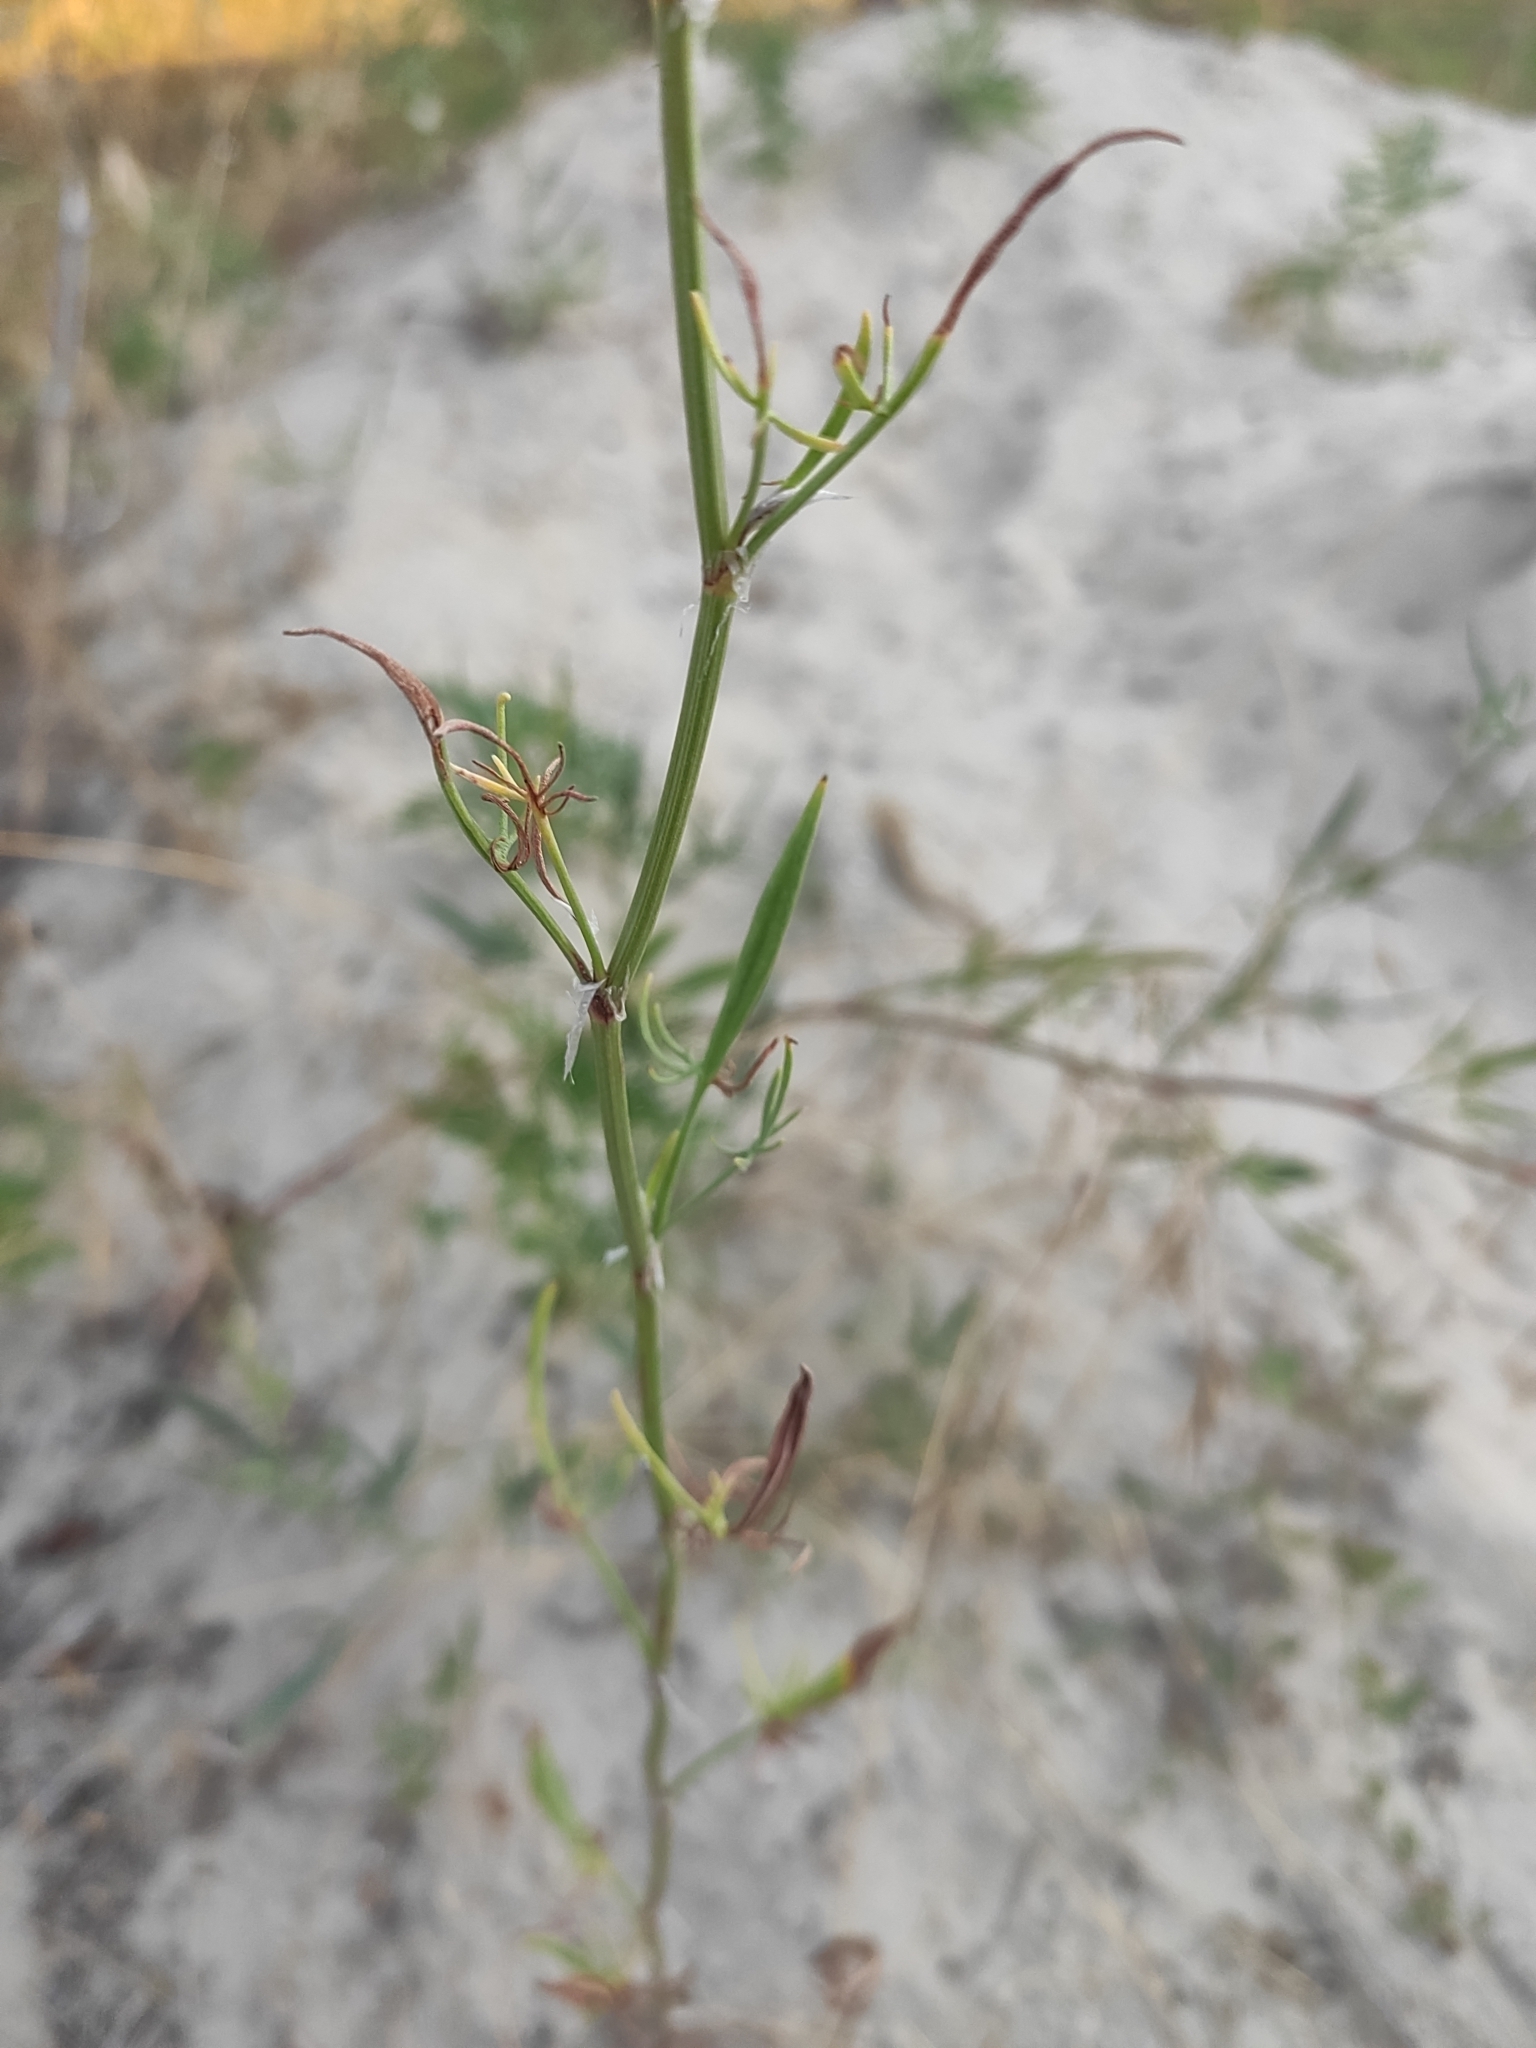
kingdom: Plantae
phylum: Tracheophyta
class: Magnoliopsida
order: Caryophyllales
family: Polygonaceae
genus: Rumex
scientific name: Rumex acetosella
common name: Common sheep sorrel
